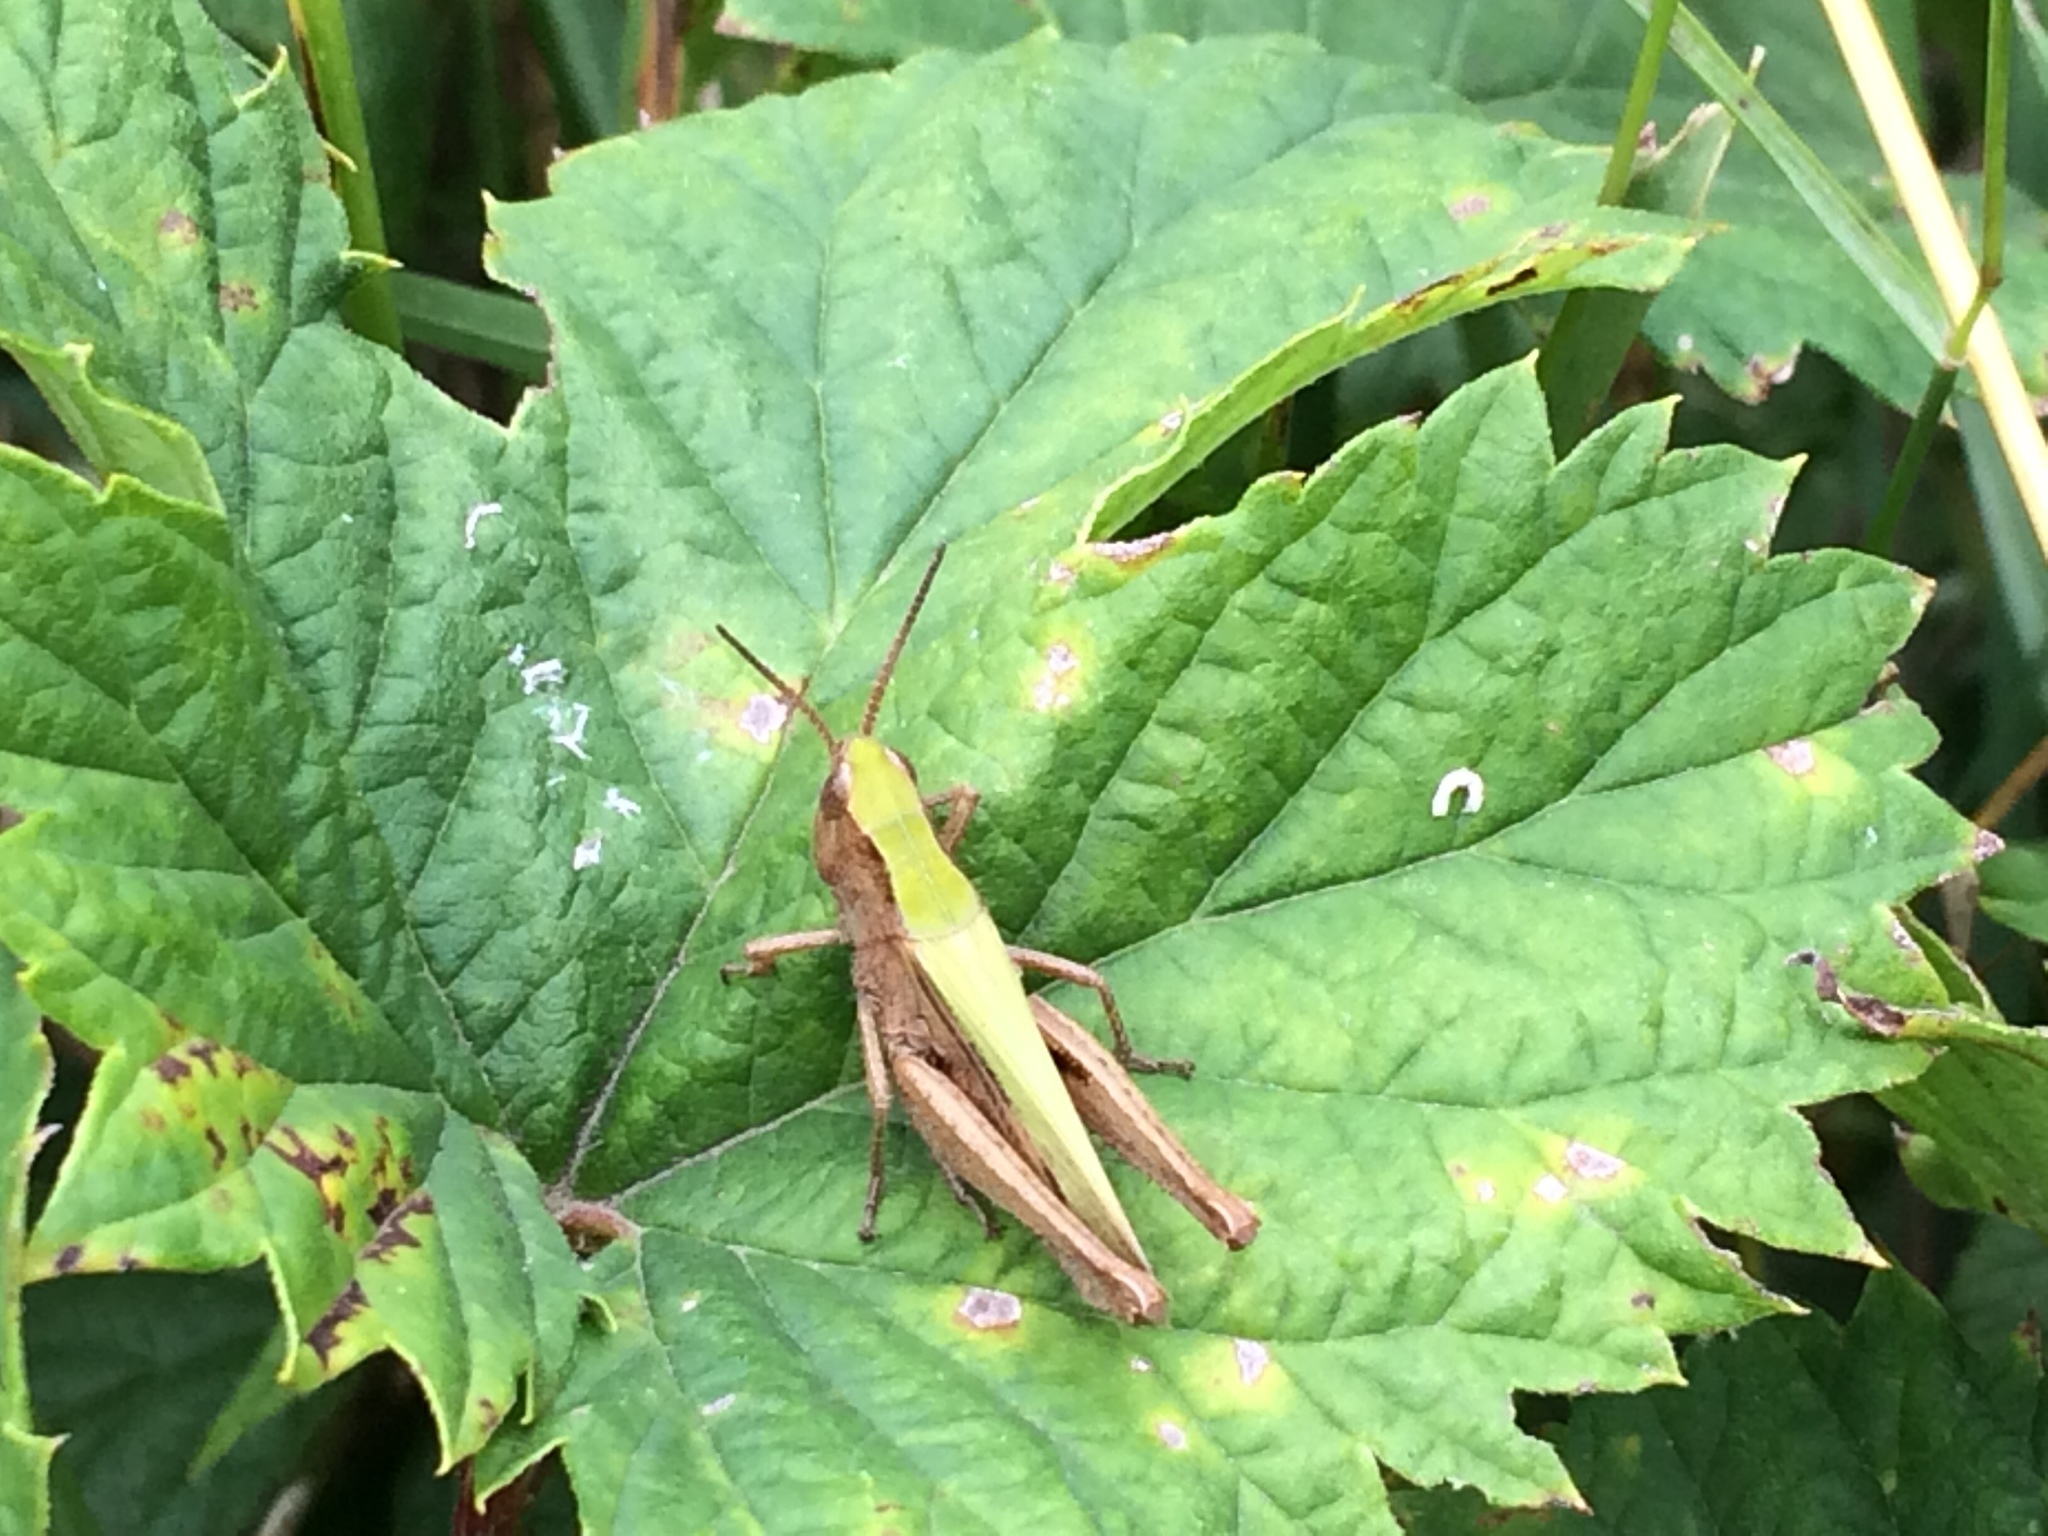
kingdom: Animalia
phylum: Arthropoda
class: Insecta
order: Orthoptera
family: Acrididae
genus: Chorthippus
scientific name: Chorthippus dorsatus
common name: Steppe grasshopper
